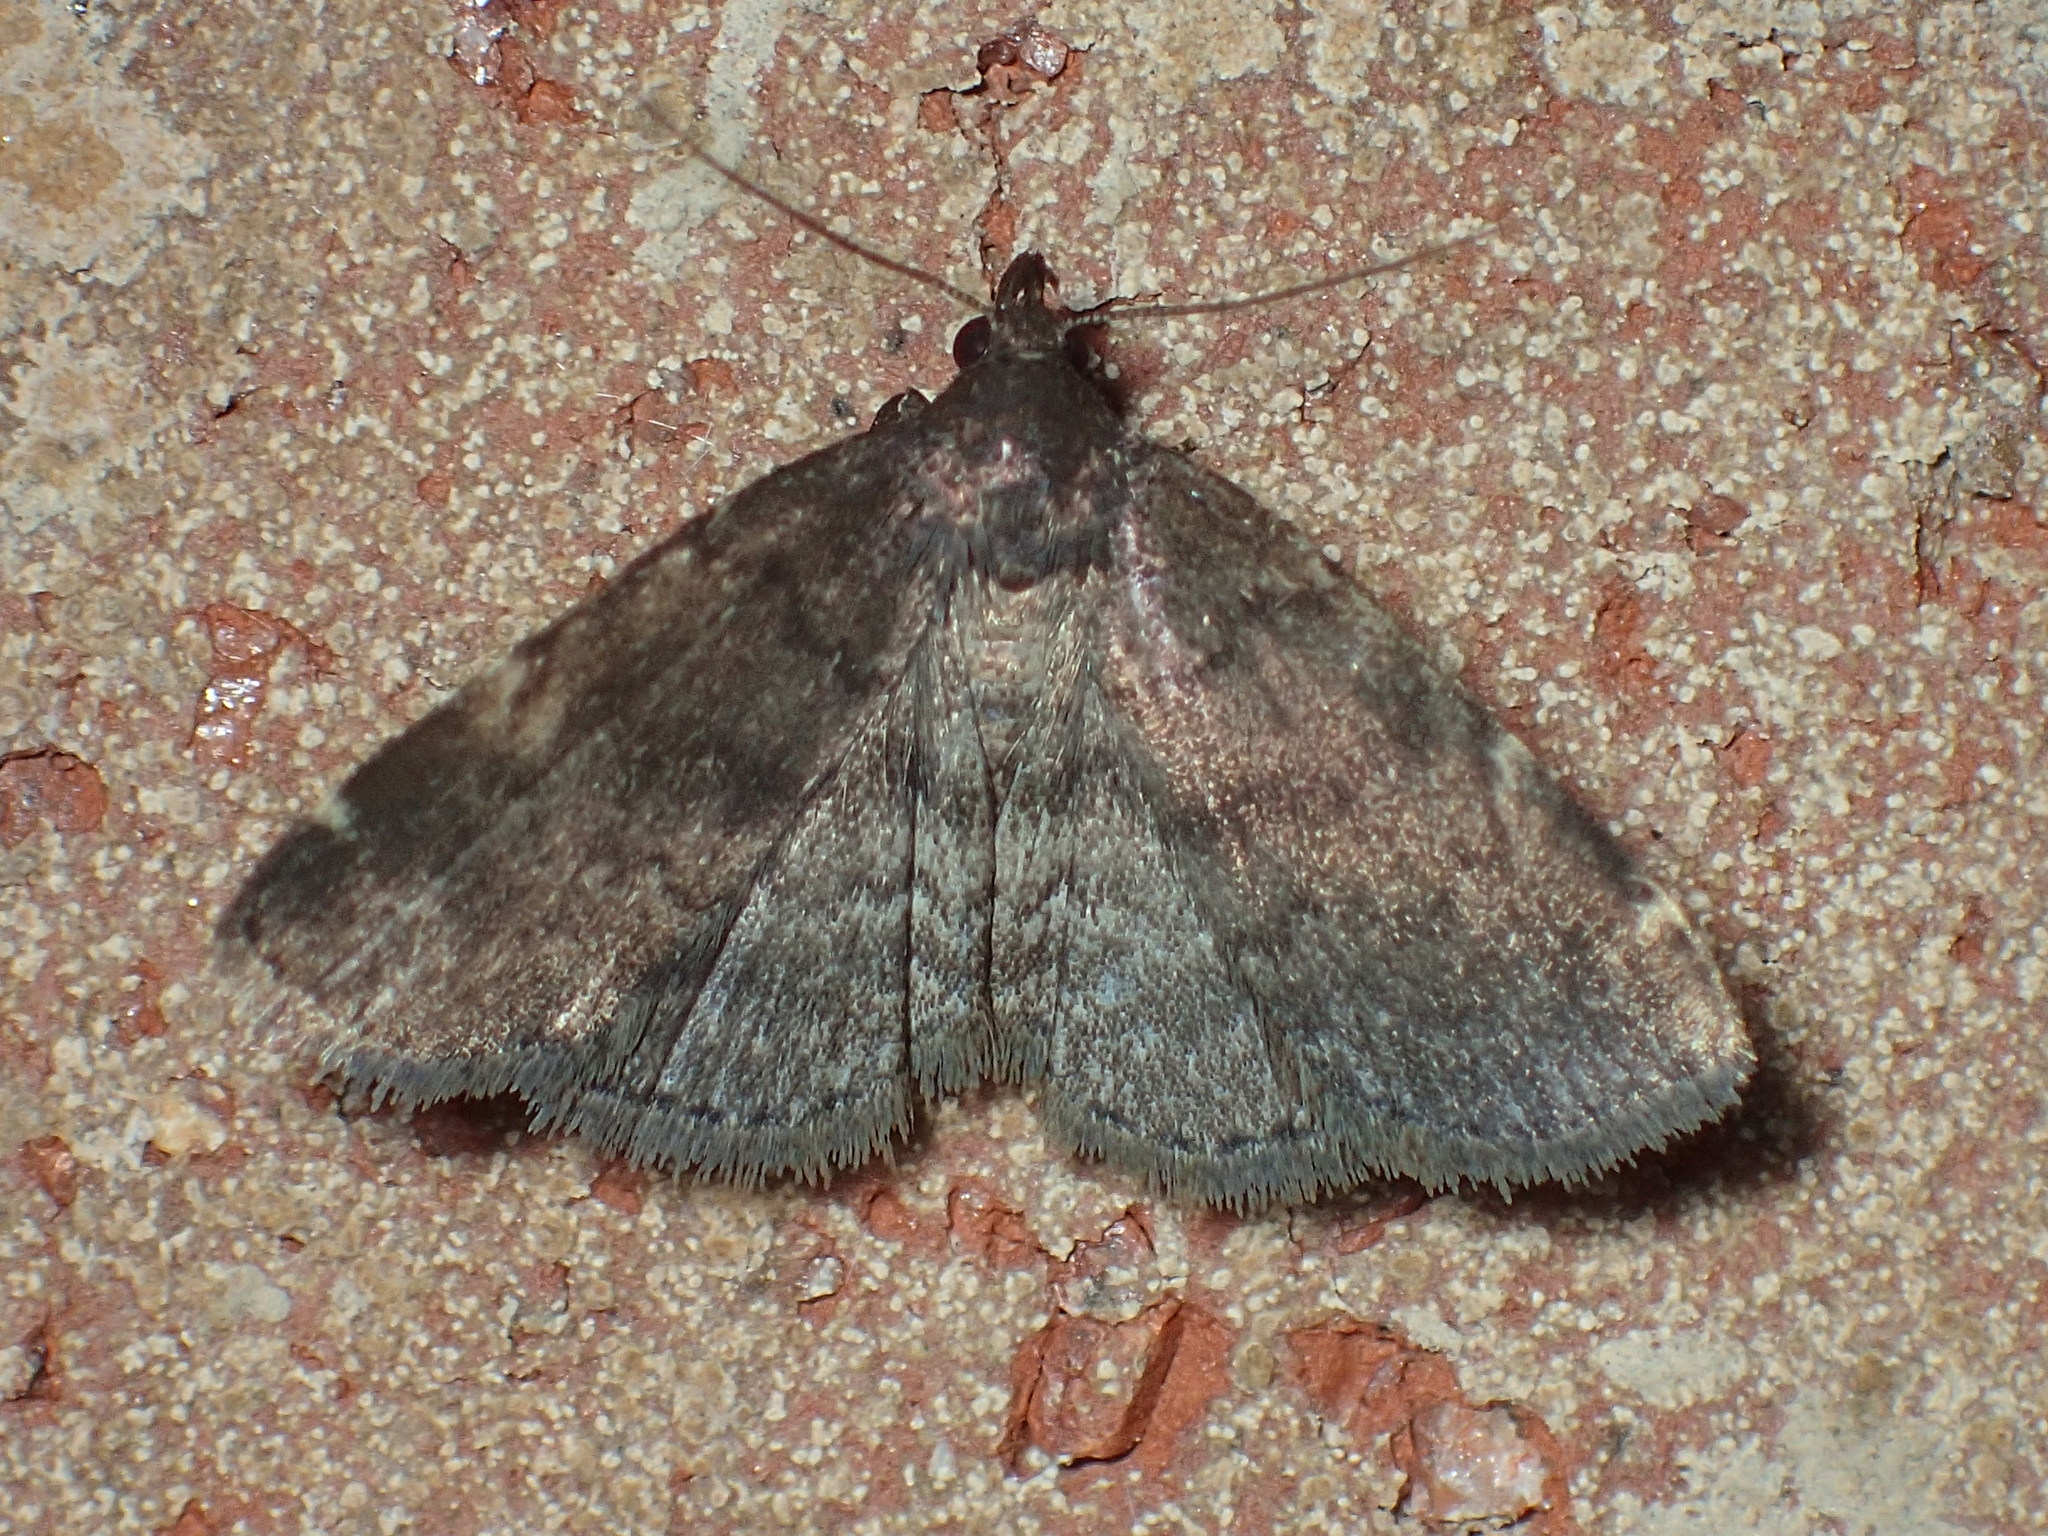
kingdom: Animalia
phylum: Arthropoda
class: Insecta
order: Lepidoptera
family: Erebidae
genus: Idia
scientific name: Idia forbesii
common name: Forbes' idia moth
